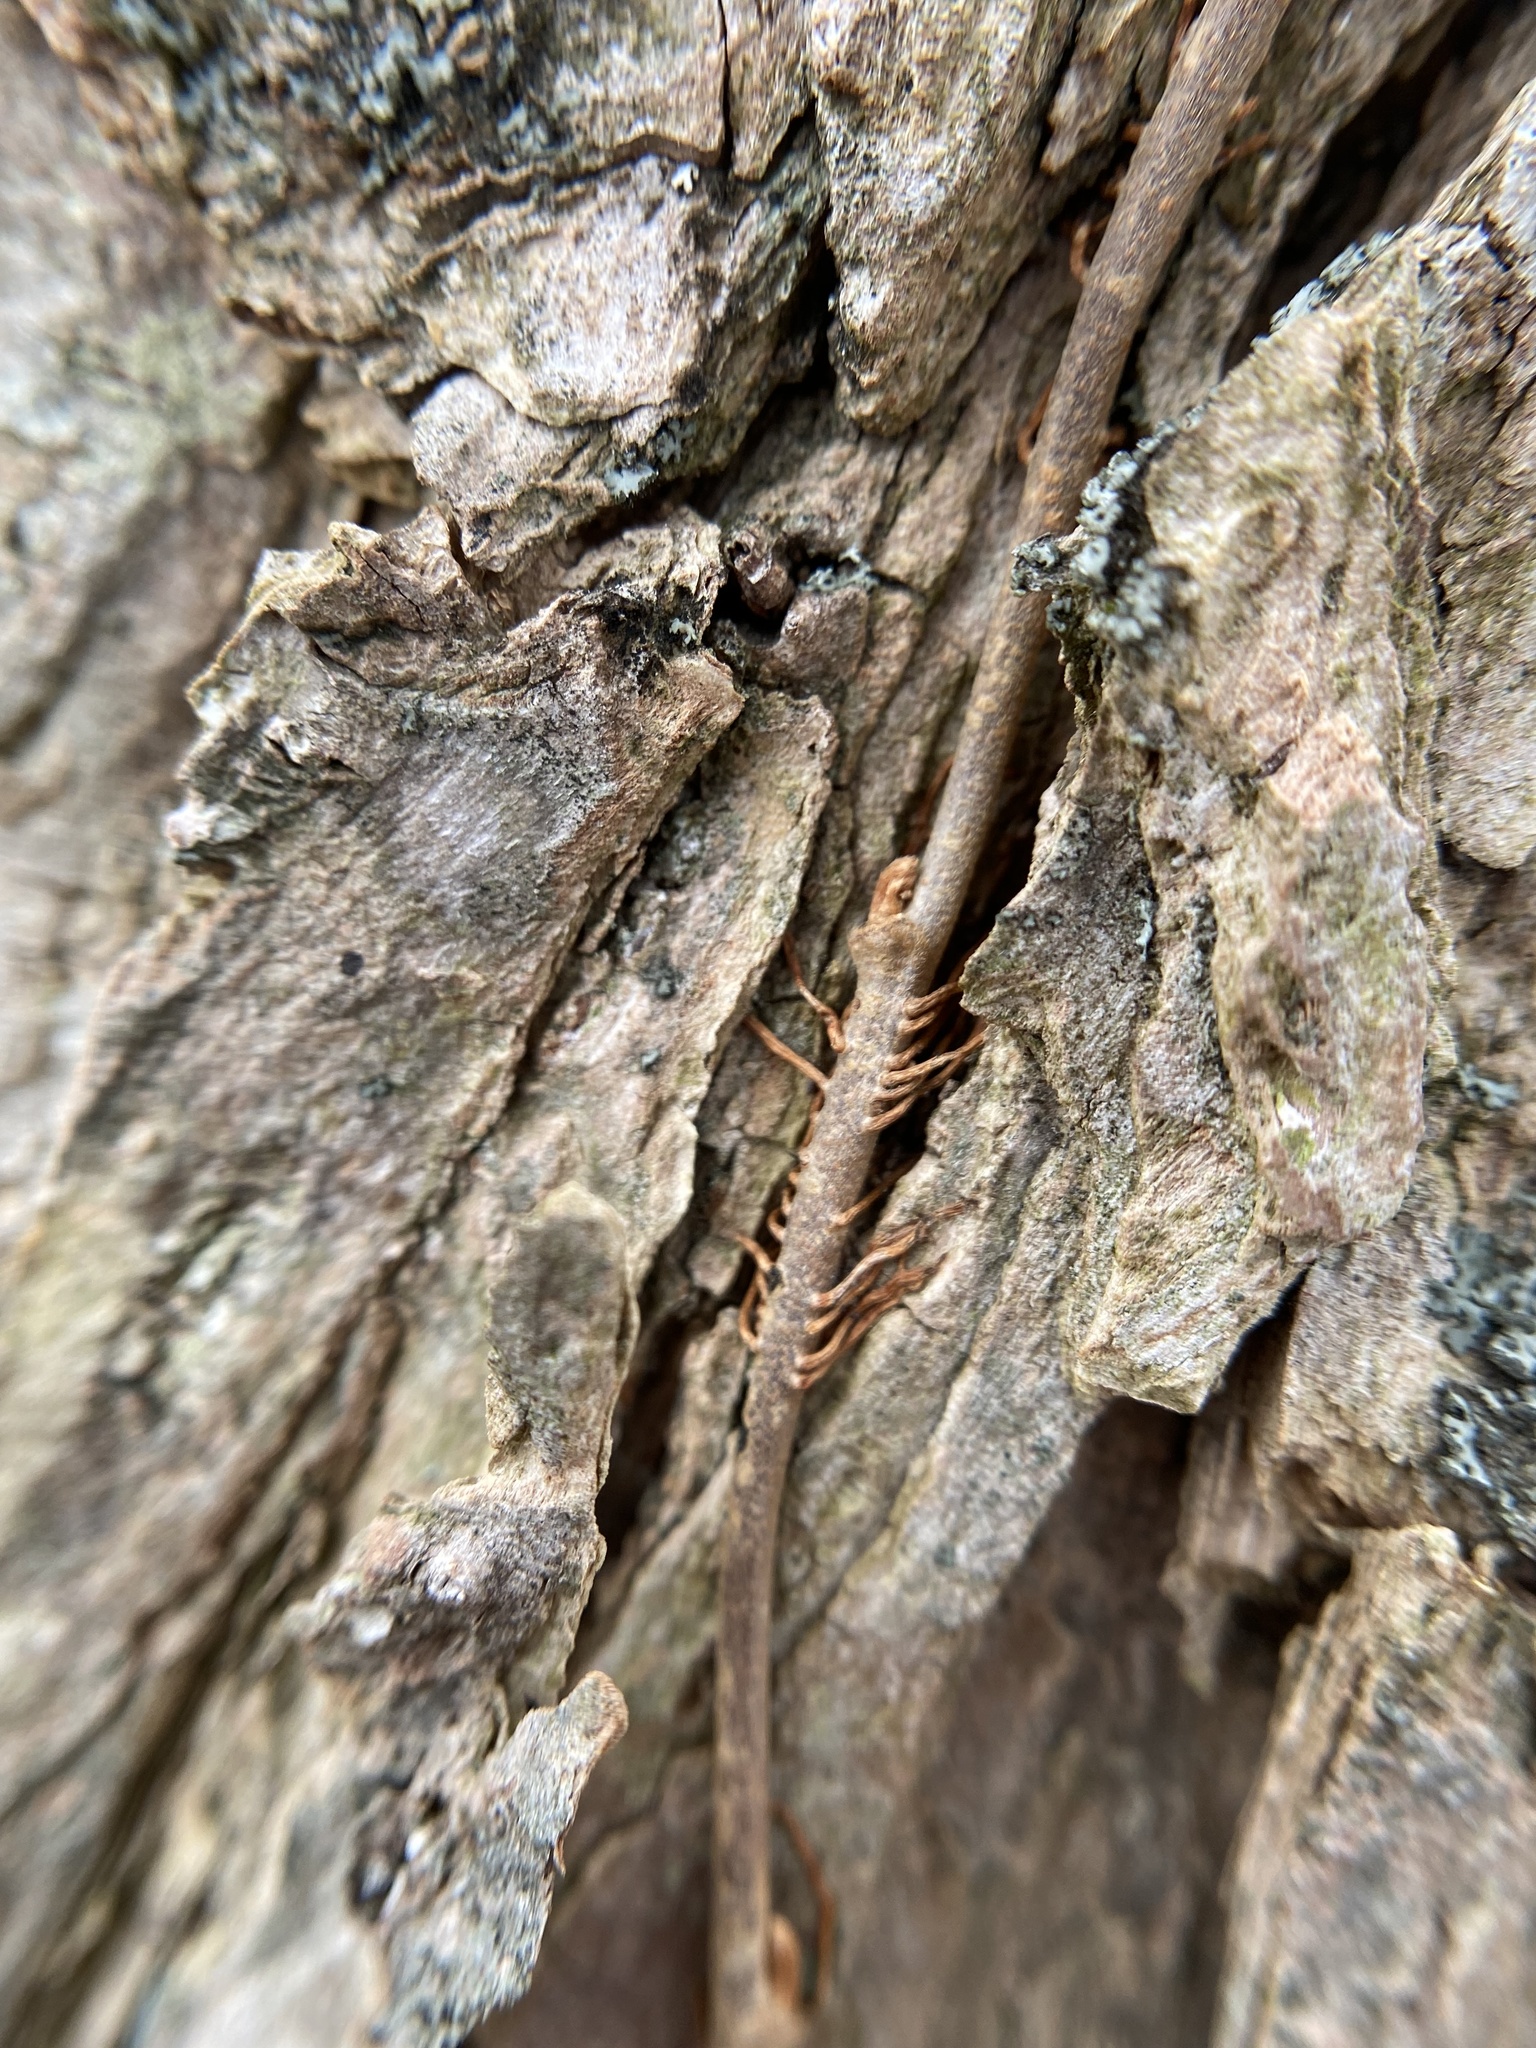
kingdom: Plantae
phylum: Tracheophyta
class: Magnoliopsida
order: Sapindales
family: Anacardiaceae
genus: Toxicodendron
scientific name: Toxicodendron radicans
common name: Poison ivy
